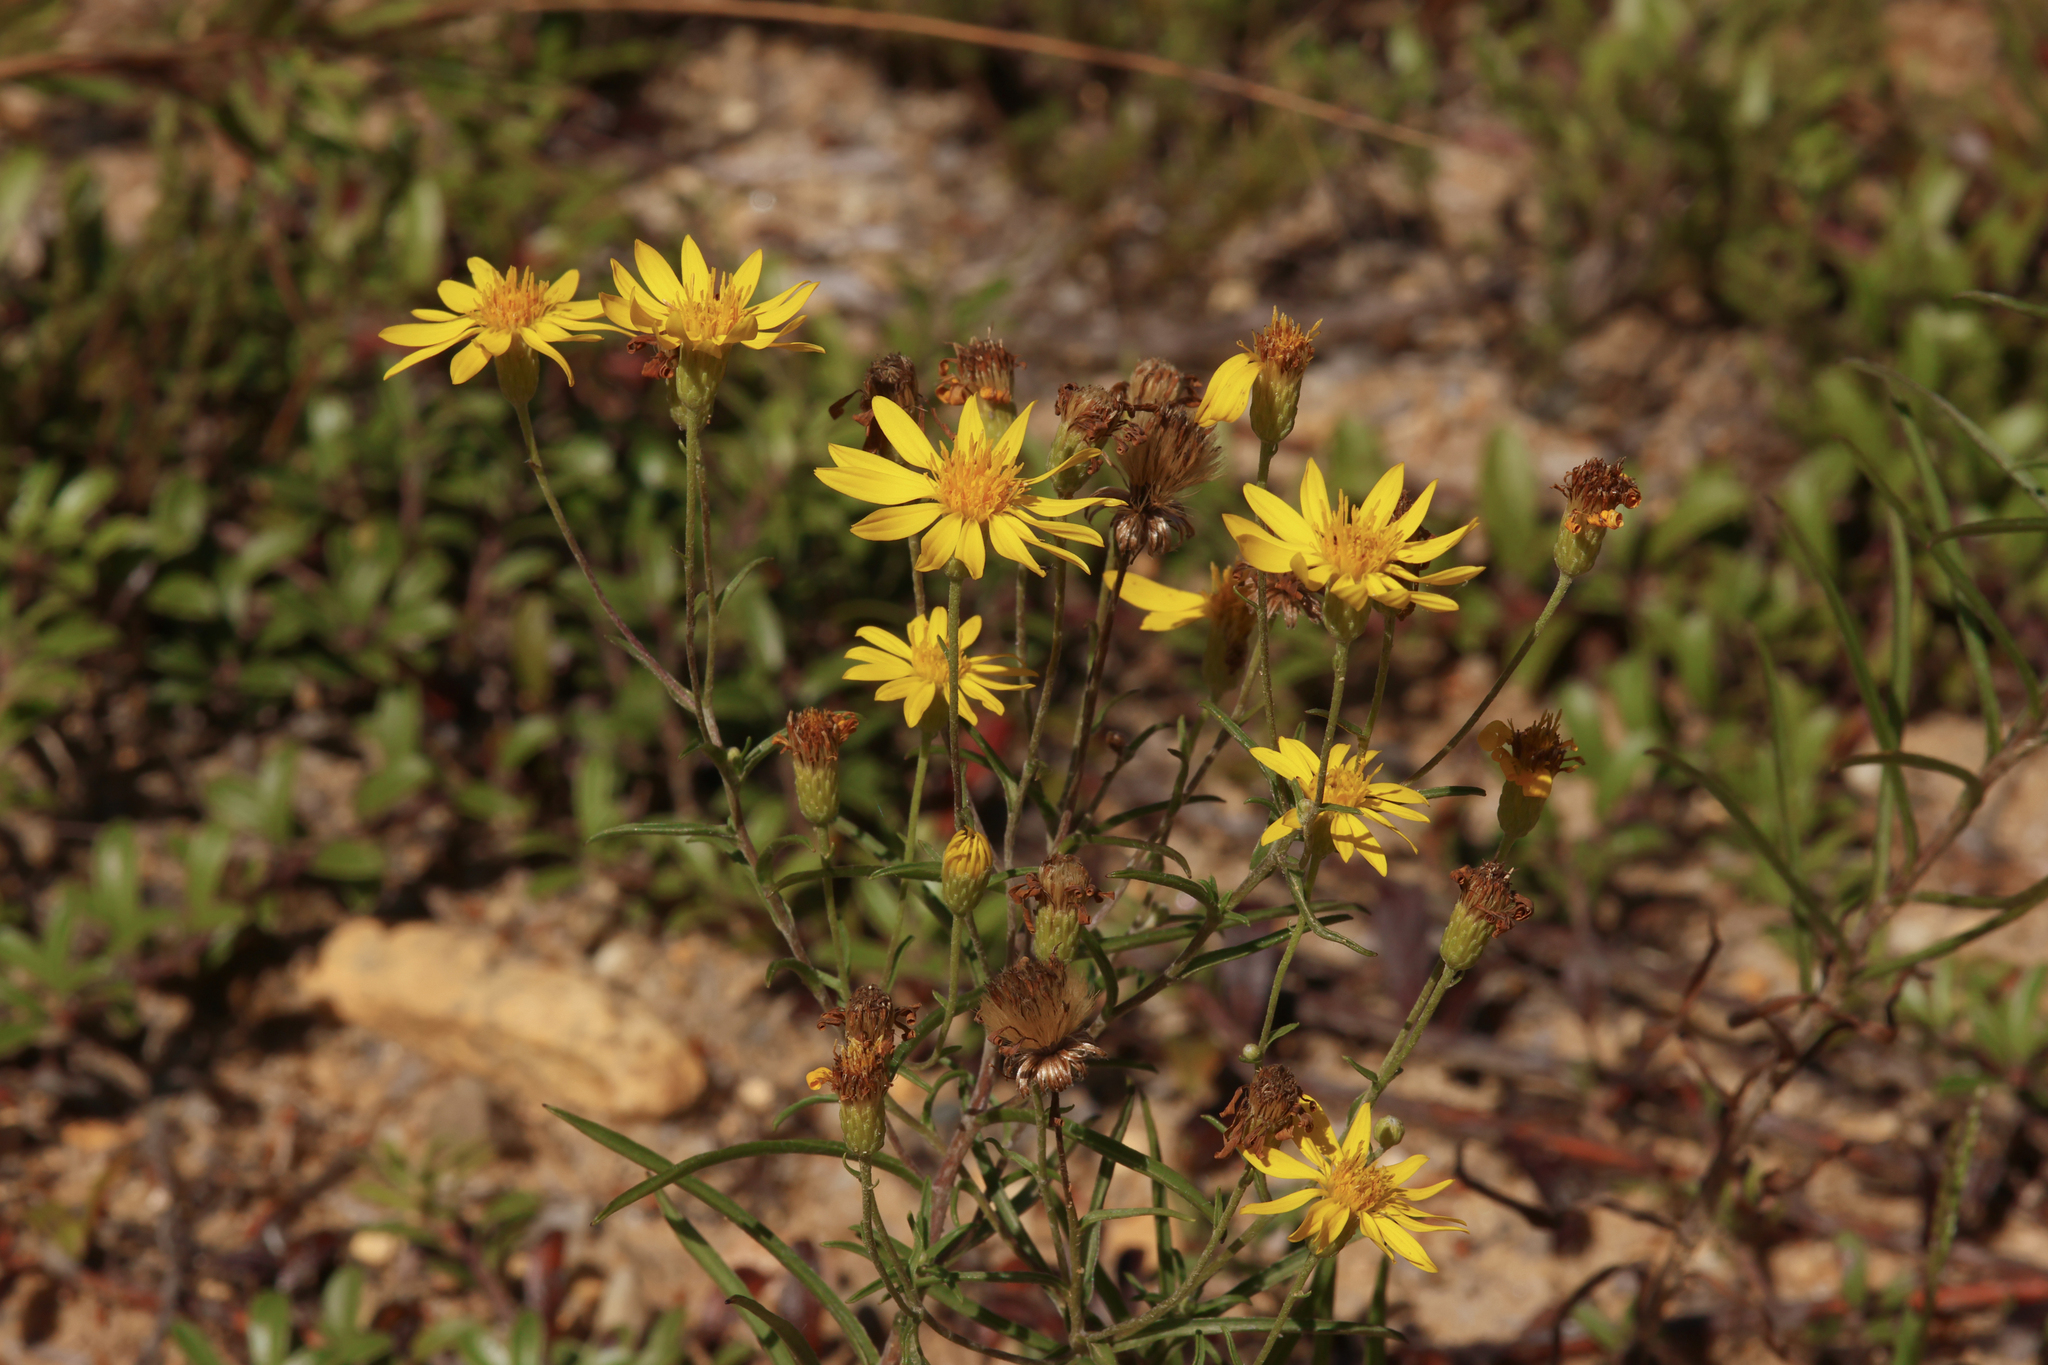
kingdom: Plantae
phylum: Tracheophyta
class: Magnoliopsida
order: Asterales
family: Asteraceae
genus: Pityopsis
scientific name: Pityopsis falcata
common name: Sickle-leaved goldenaster
